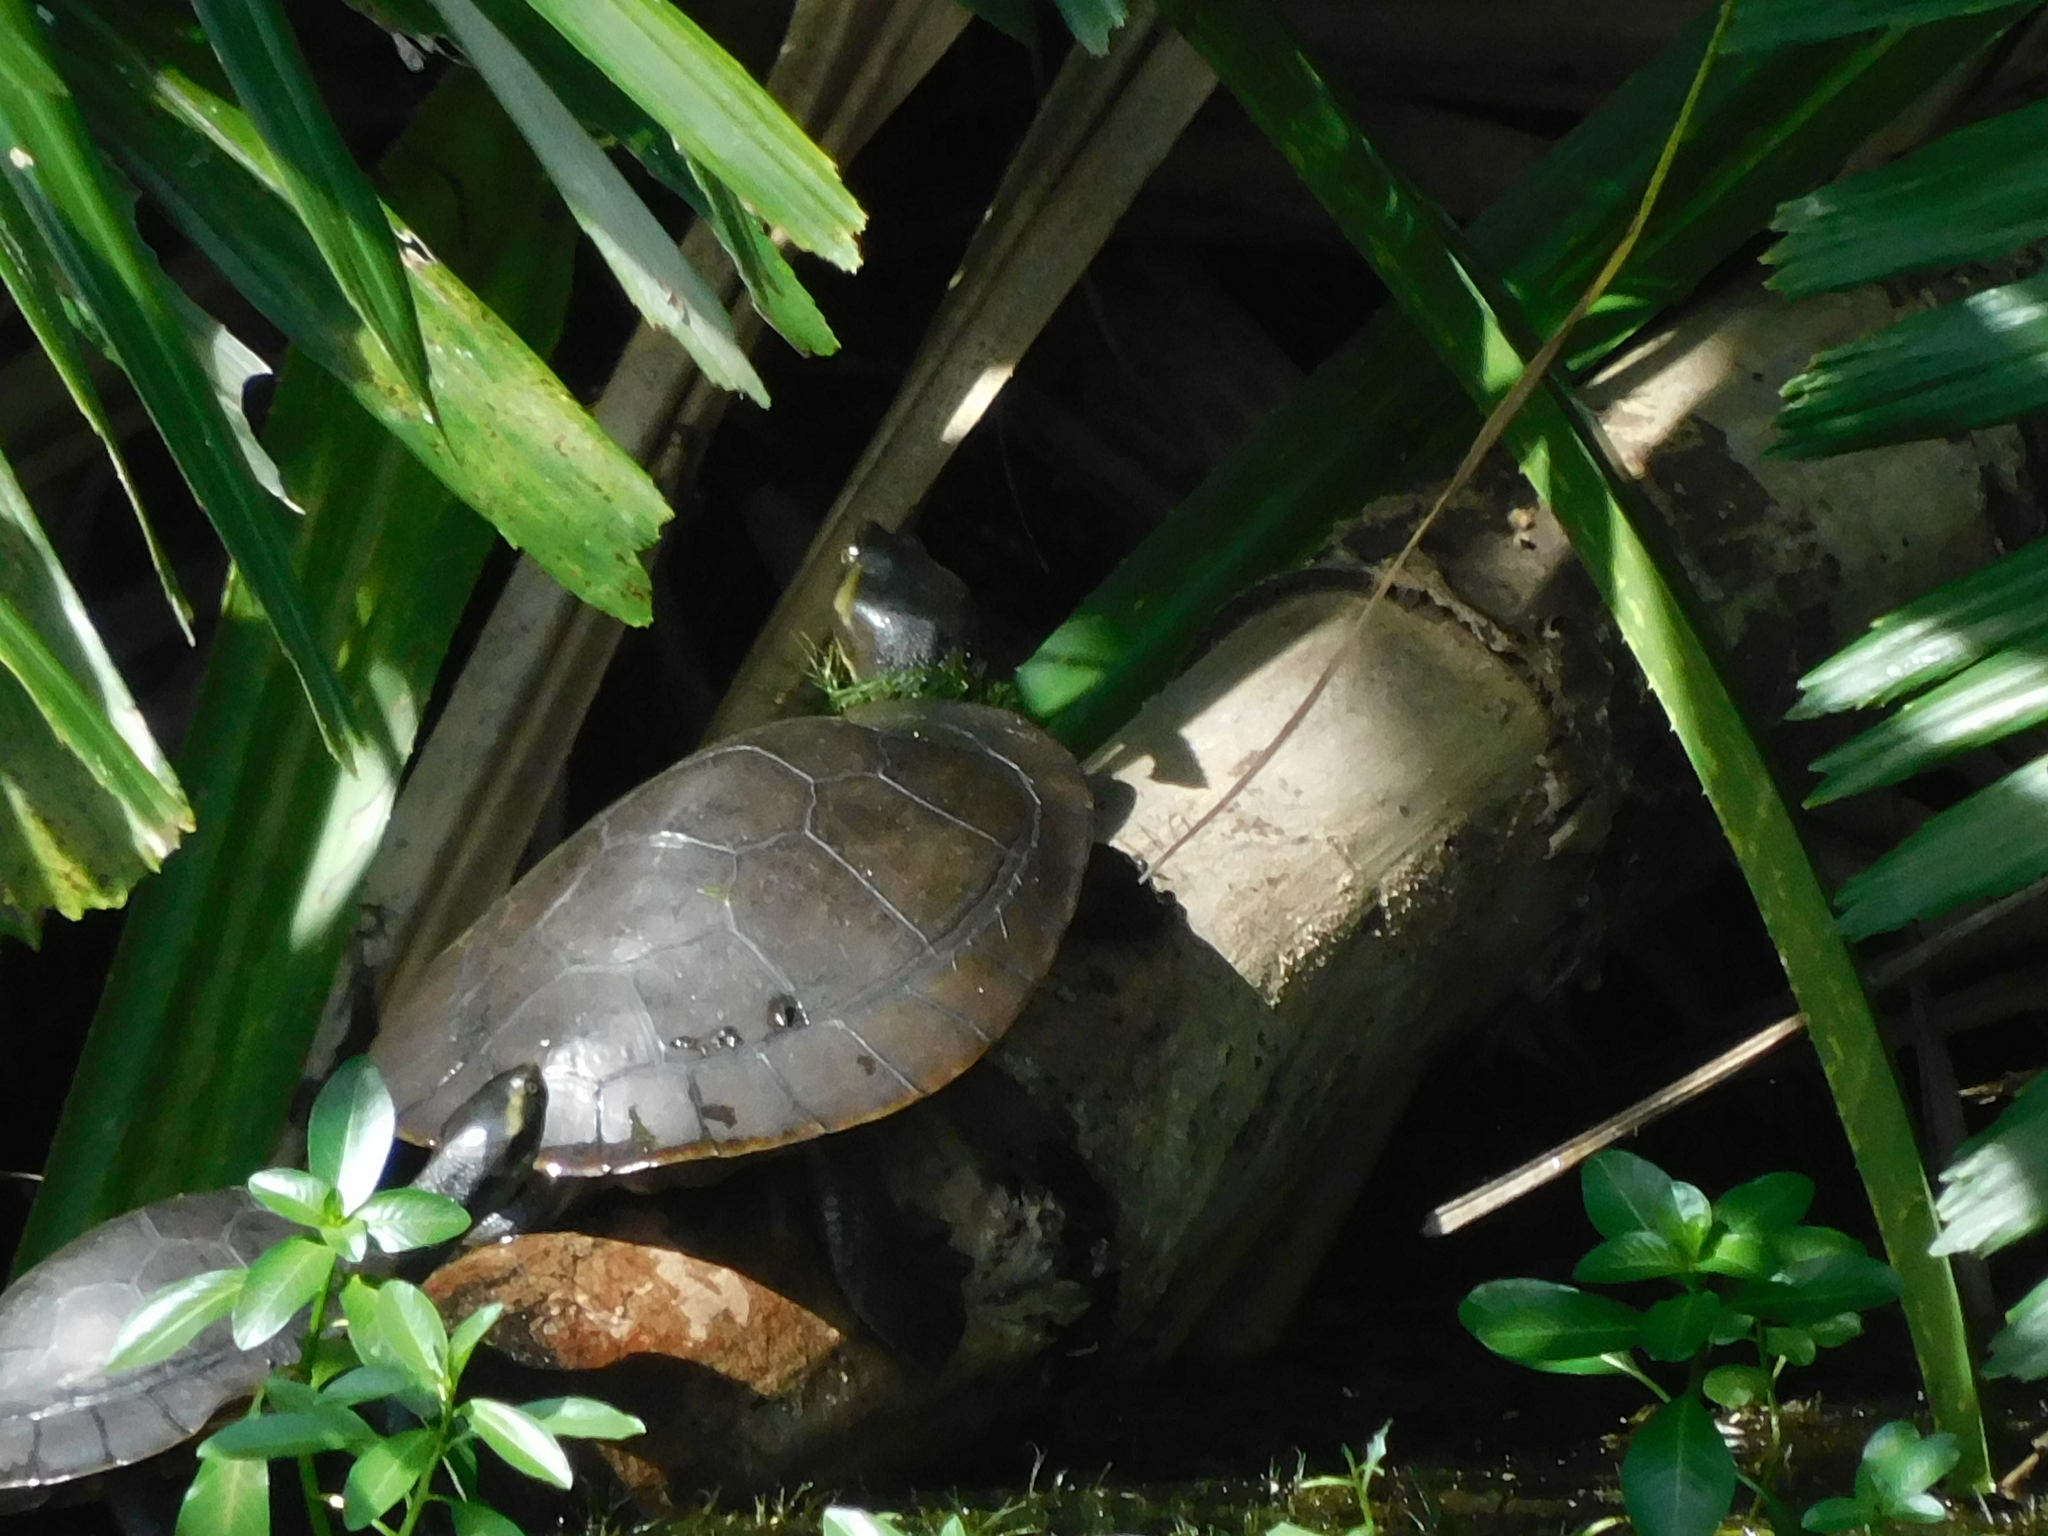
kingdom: Animalia
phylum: Chordata
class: Testudines
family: Chelidae
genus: Emydura
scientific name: Emydura macquarii
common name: Murray river turtle
